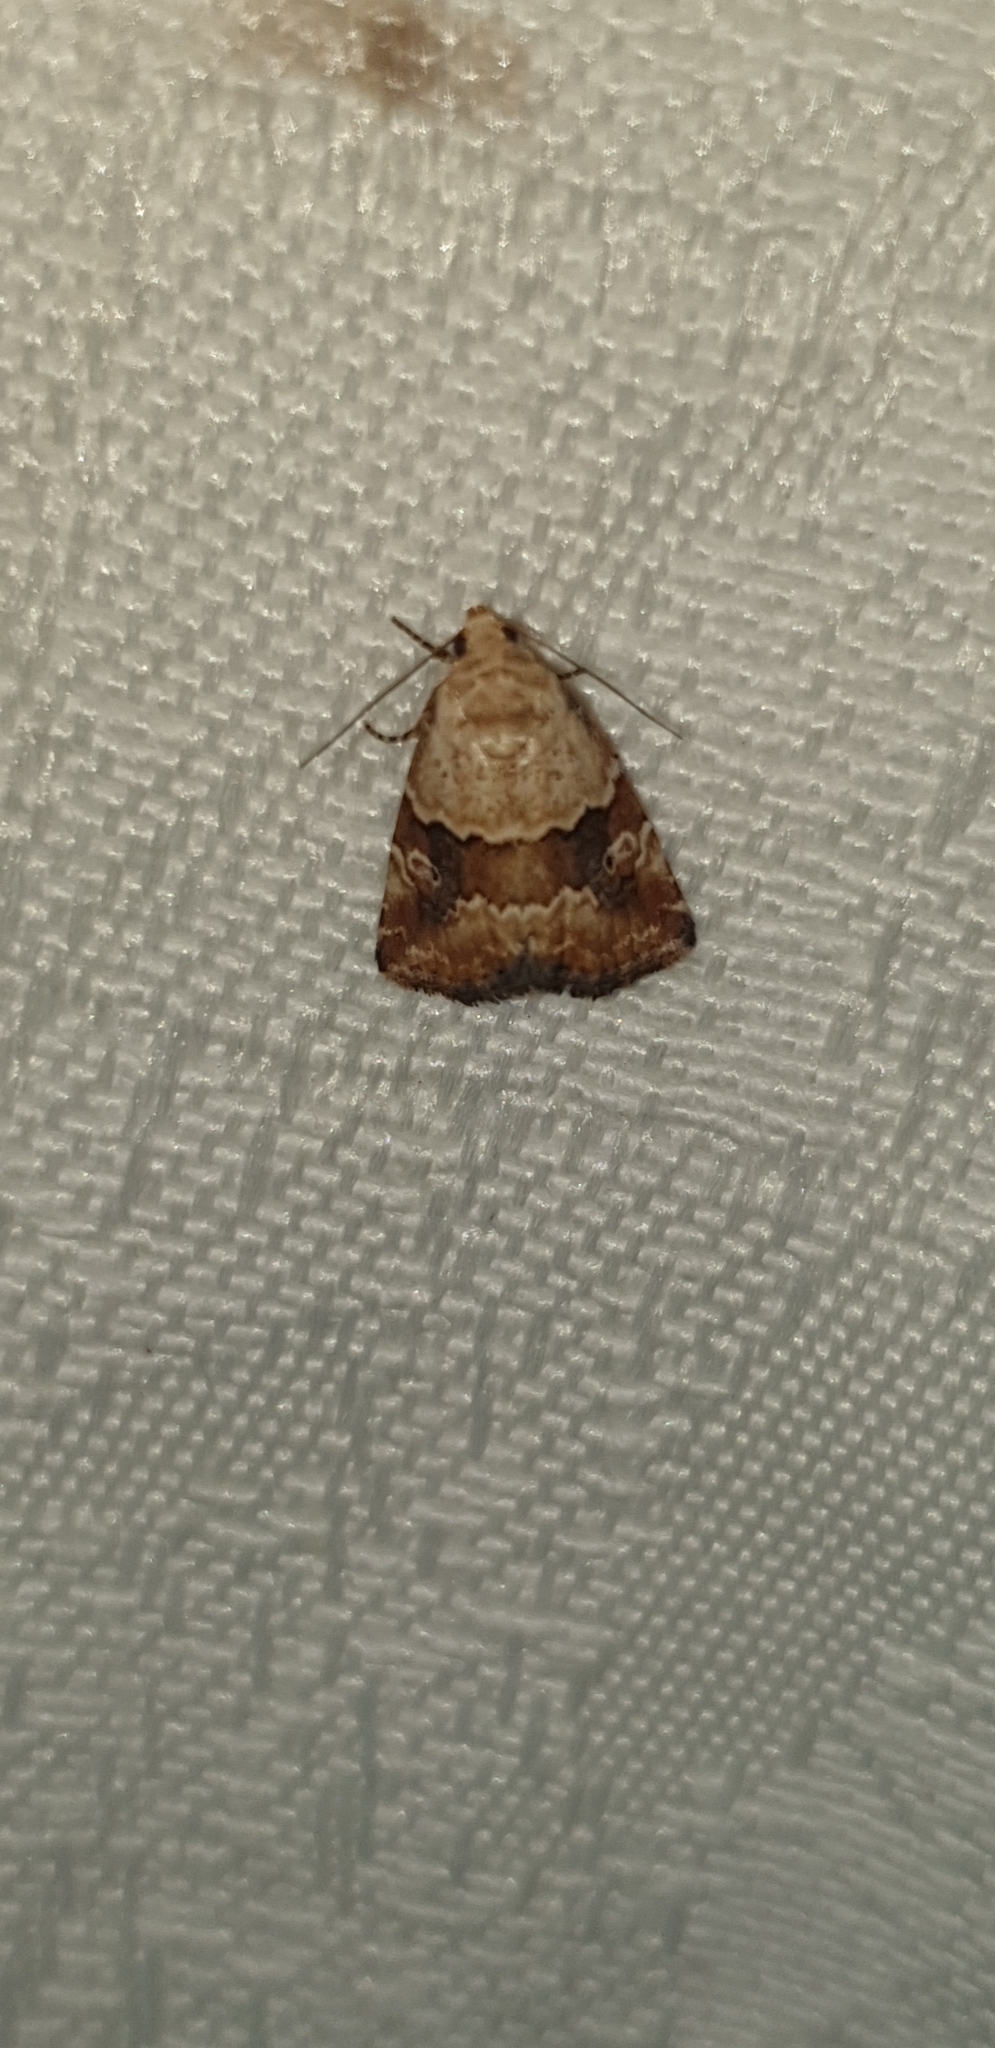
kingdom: Animalia
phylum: Arthropoda
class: Insecta
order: Lepidoptera
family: Noctuidae
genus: Maliattha
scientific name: Maliattha amorpha
